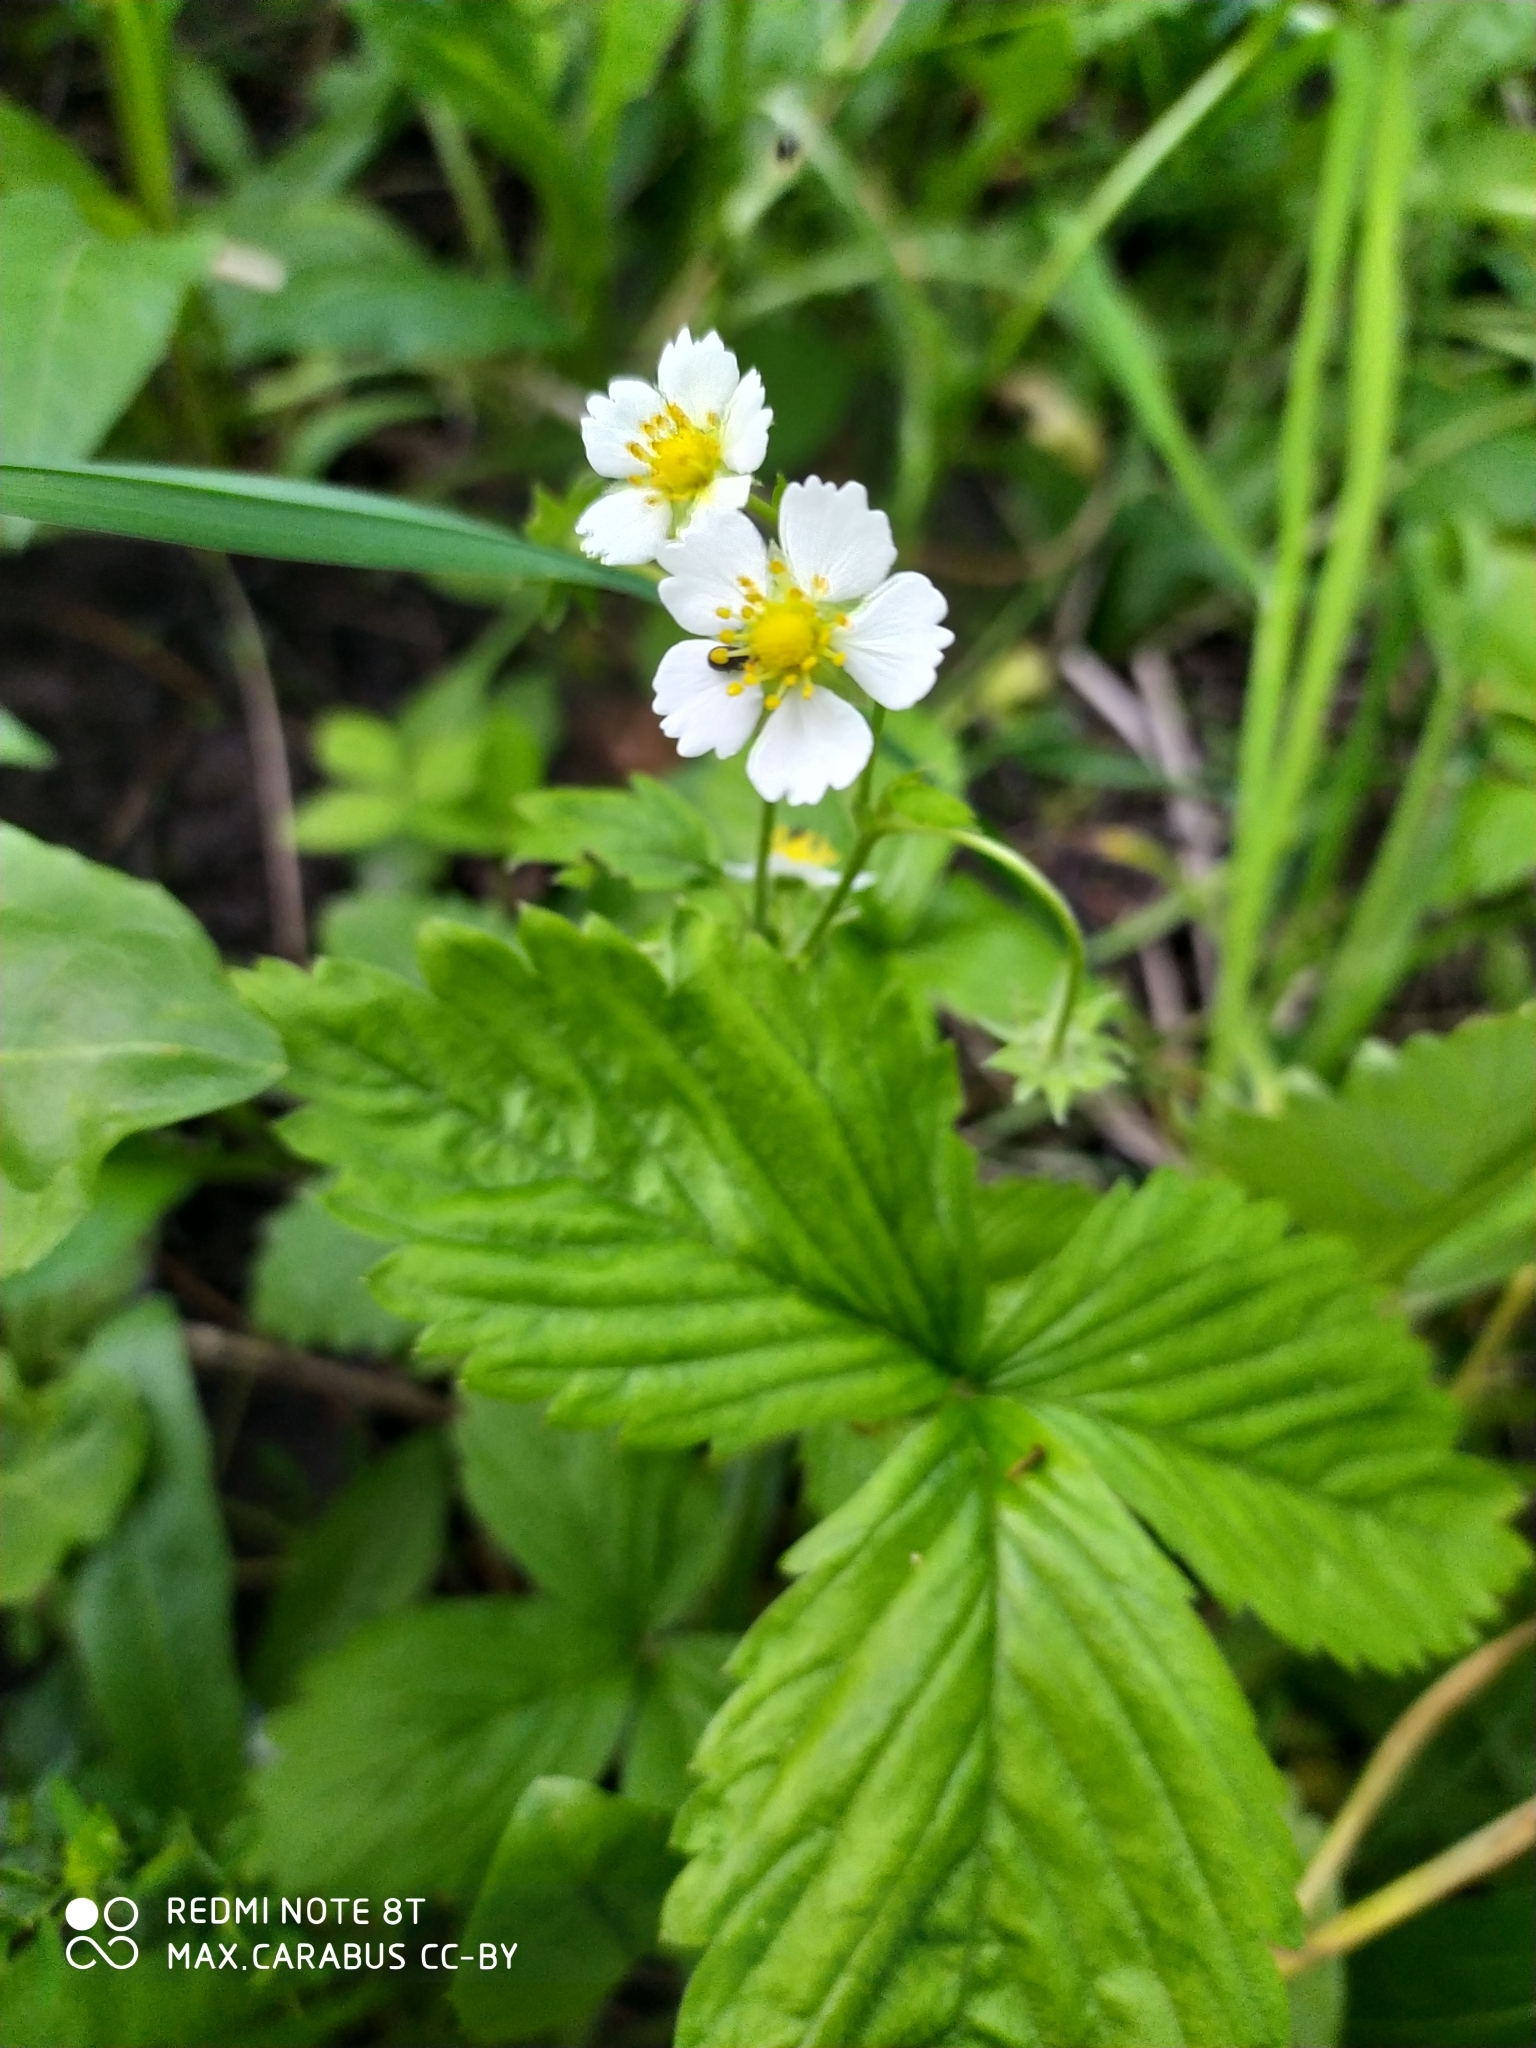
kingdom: Plantae
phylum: Tracheophyta
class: Magnoliopsida
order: Rosales
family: Rosaceae
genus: Fragaria
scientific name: Fragaria vesca
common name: Wild strawberry
